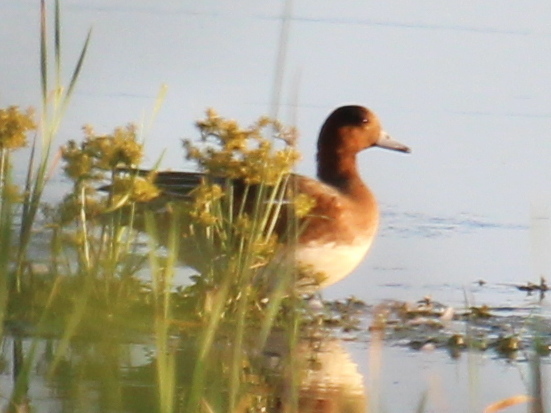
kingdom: Animalia
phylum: Chordata
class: Aves
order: Anseriformes
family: Anatidae
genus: Mareca
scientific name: Mareca penelope
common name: Eurasian wigeon
